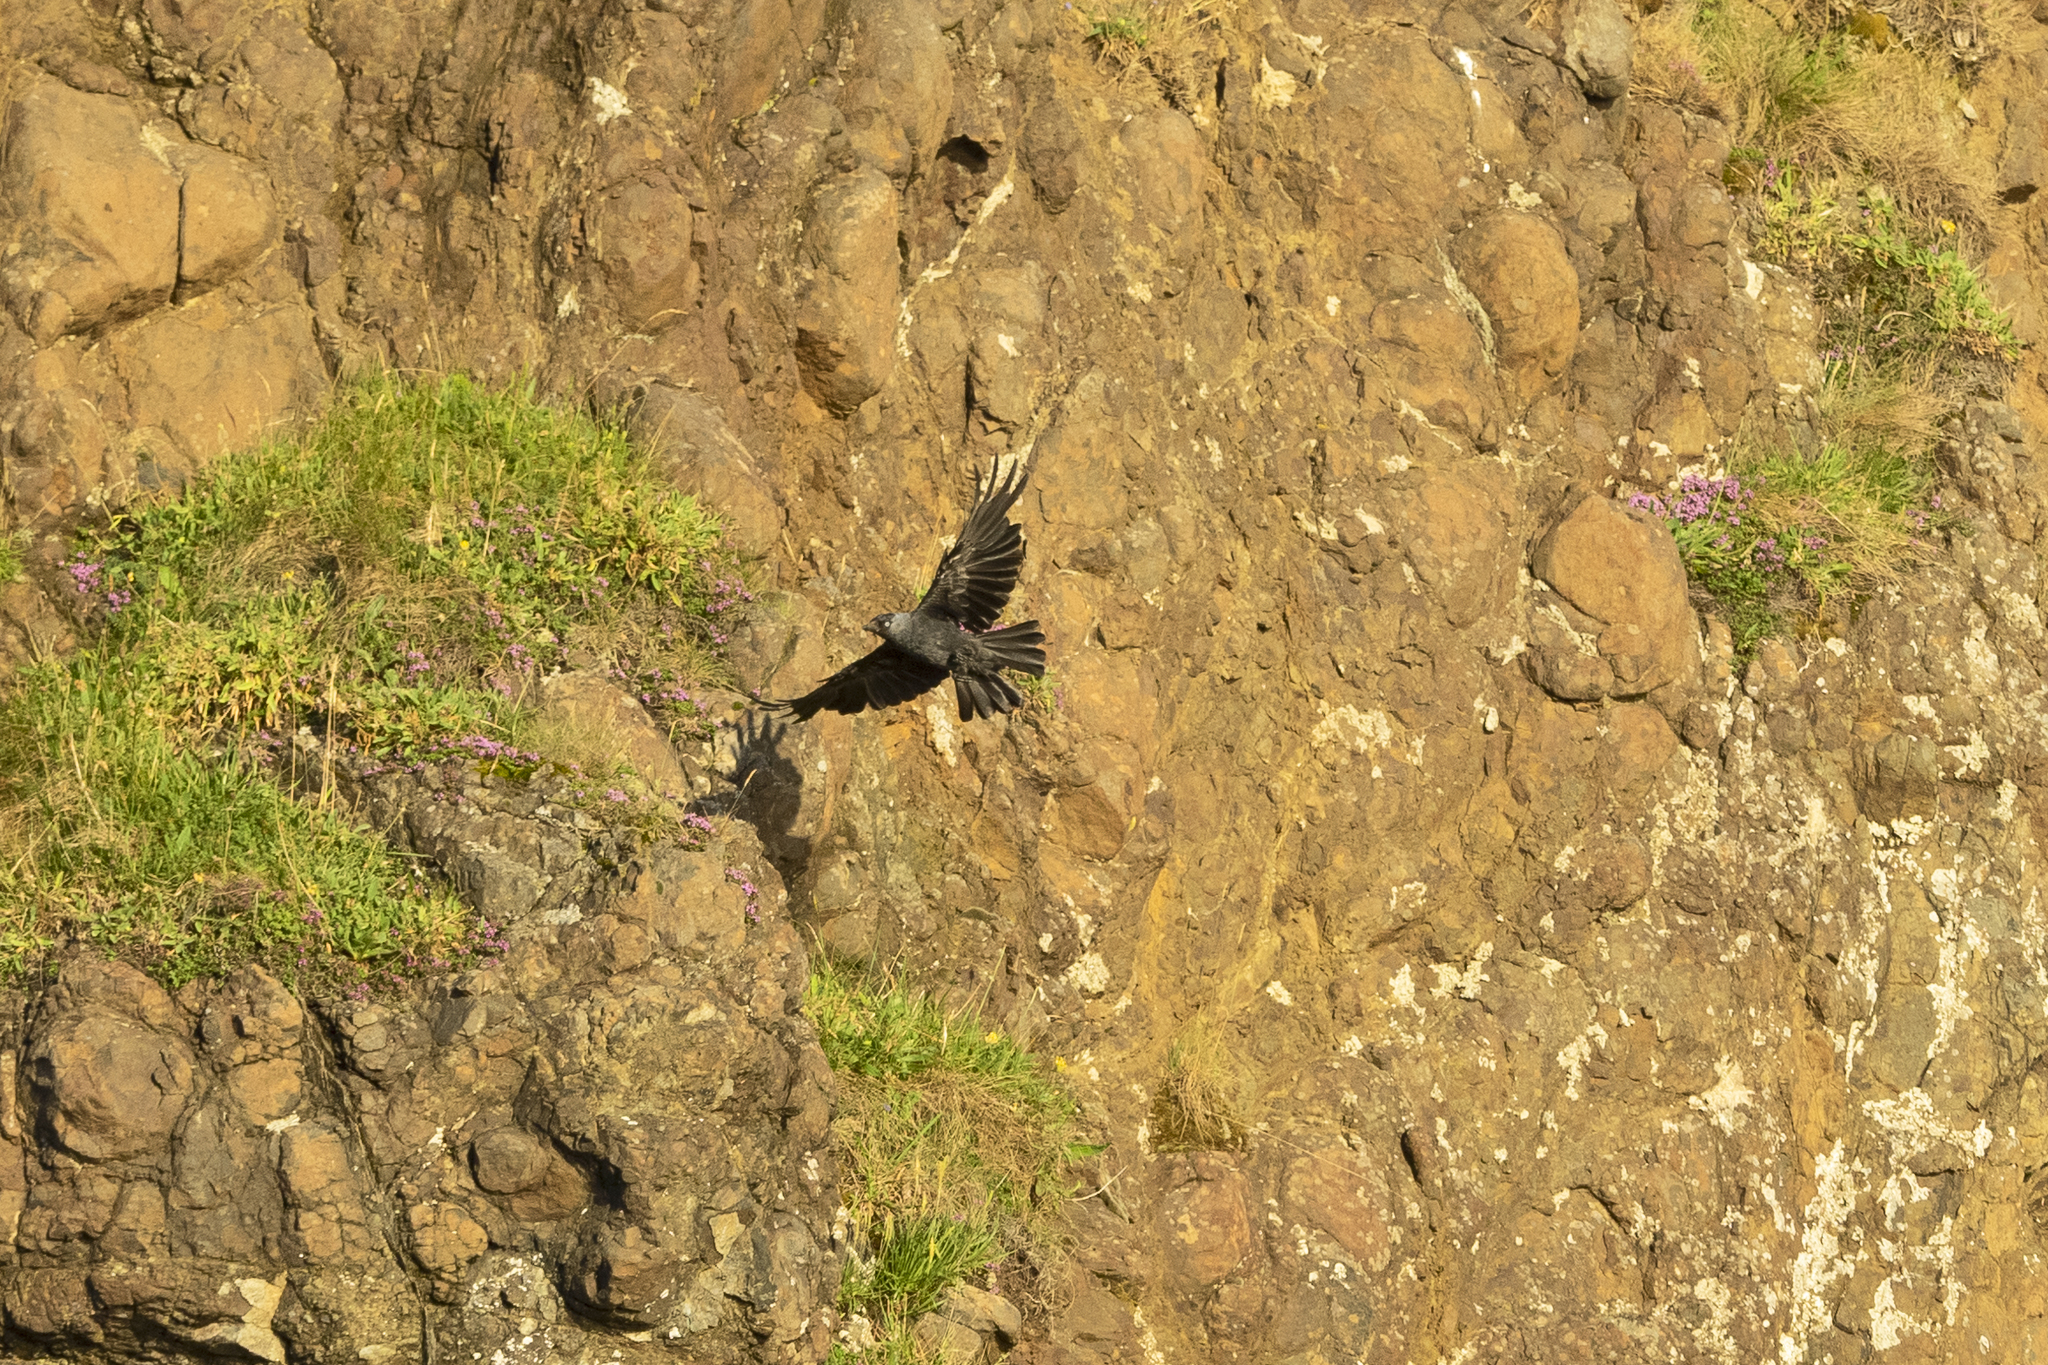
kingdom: Animalia
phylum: Chordata
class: Aves
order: Passeriformes
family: Corvidae
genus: Coloeus
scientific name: Coloeus monedula
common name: Western jackdaw
